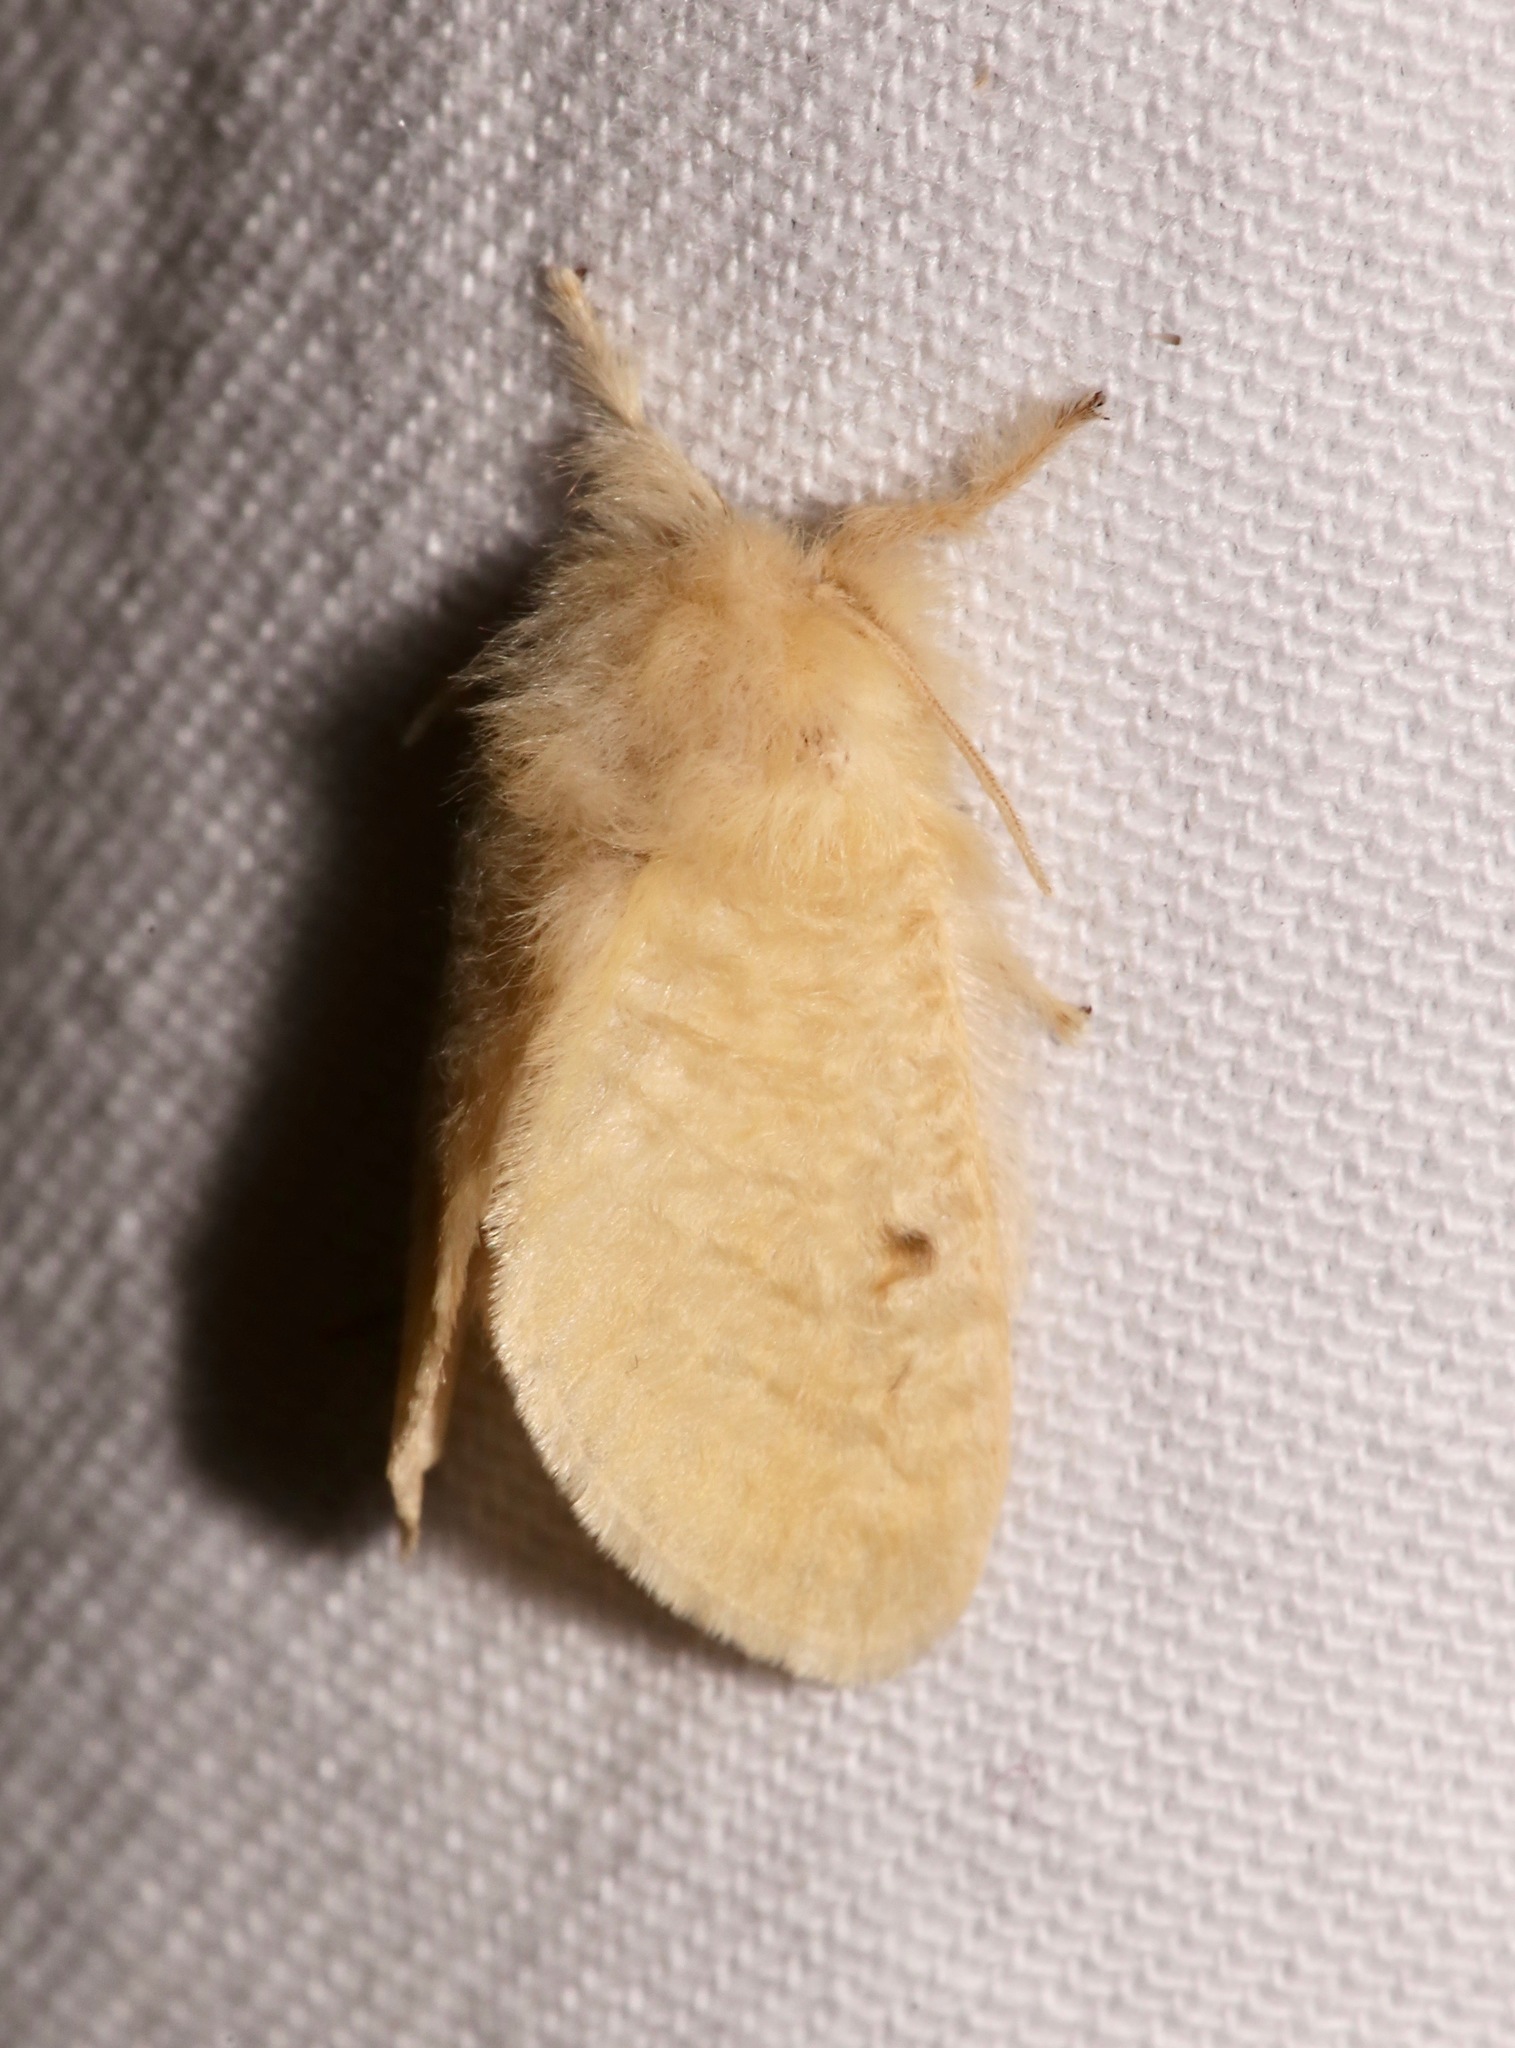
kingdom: Animalia
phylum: Arthropoda
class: Insecta
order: Lepidoptera
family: Megalopygidae
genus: Megalopyge
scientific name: Megalopyge lacyi
